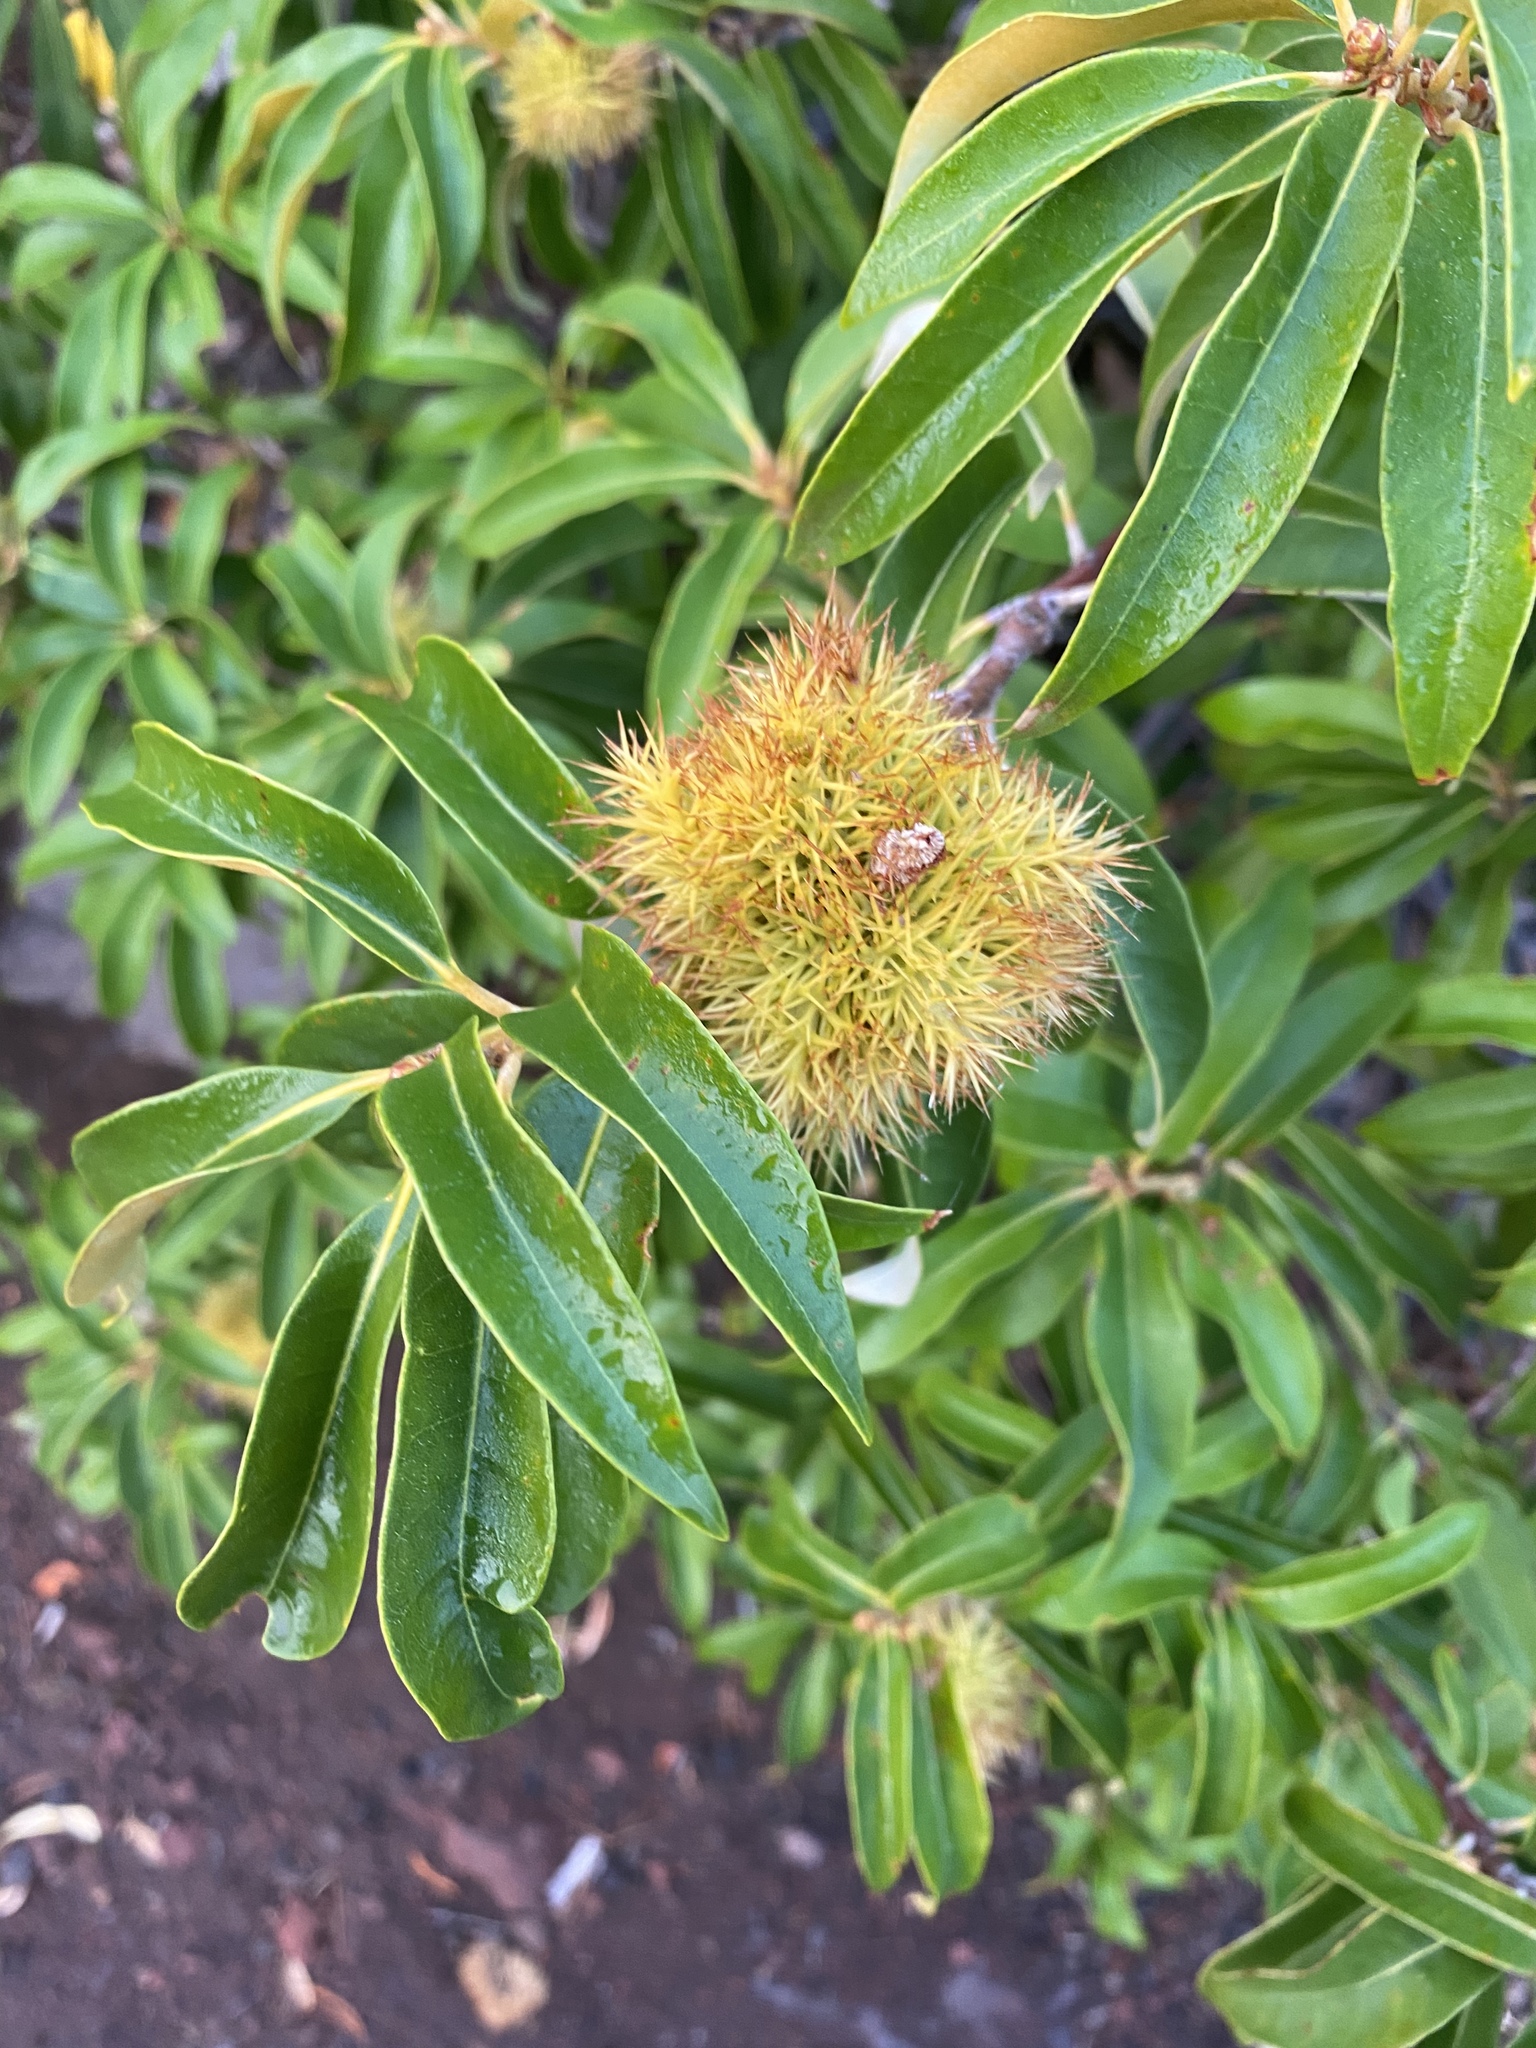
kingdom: Plantae
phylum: Tracheophyta
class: Magnoliopsida
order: Fagales
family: Fagaceae
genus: Chrysolepis
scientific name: Chrysolepis chrysophylla
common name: Giant chinquapin
